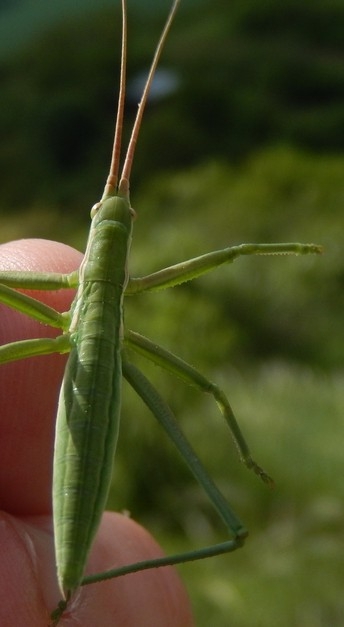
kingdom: Animalia
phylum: Arthropoda
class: Insecta
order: Orthoptera
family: Tettigoniidae
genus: Saga
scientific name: Saga pedo
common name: Common predatory bush-cricket
